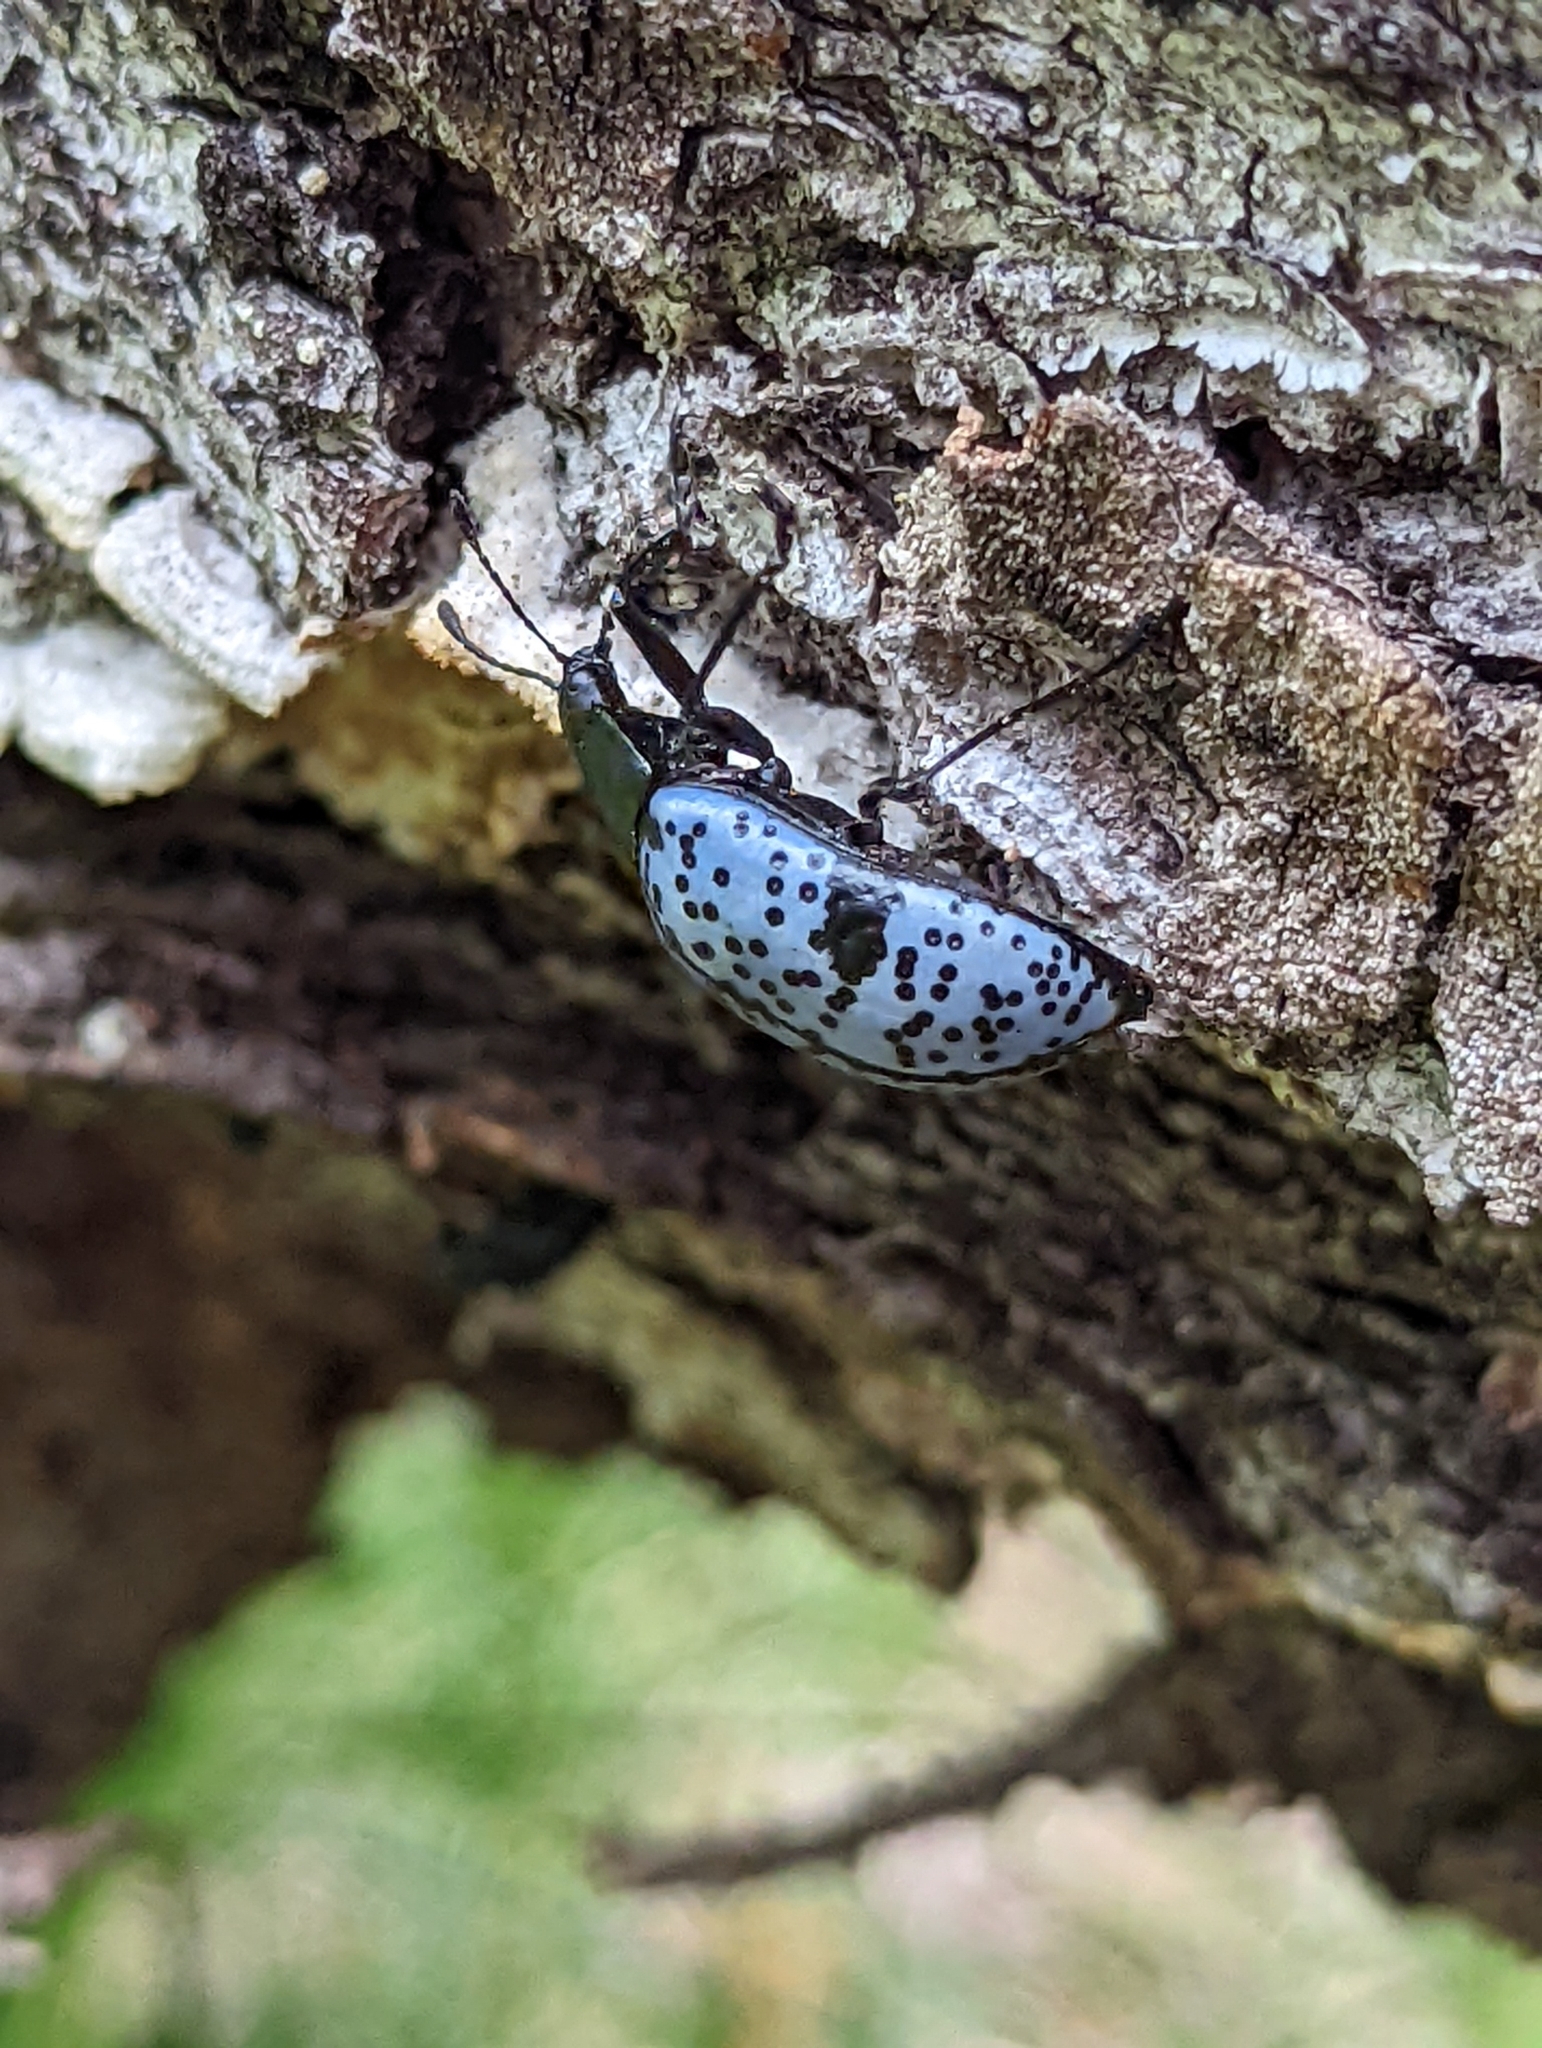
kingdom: Animalia
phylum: Arthropoda
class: Insecta
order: Coleoptera
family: Erotylidae
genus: Gibbifer
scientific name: Gibbifer californicus
